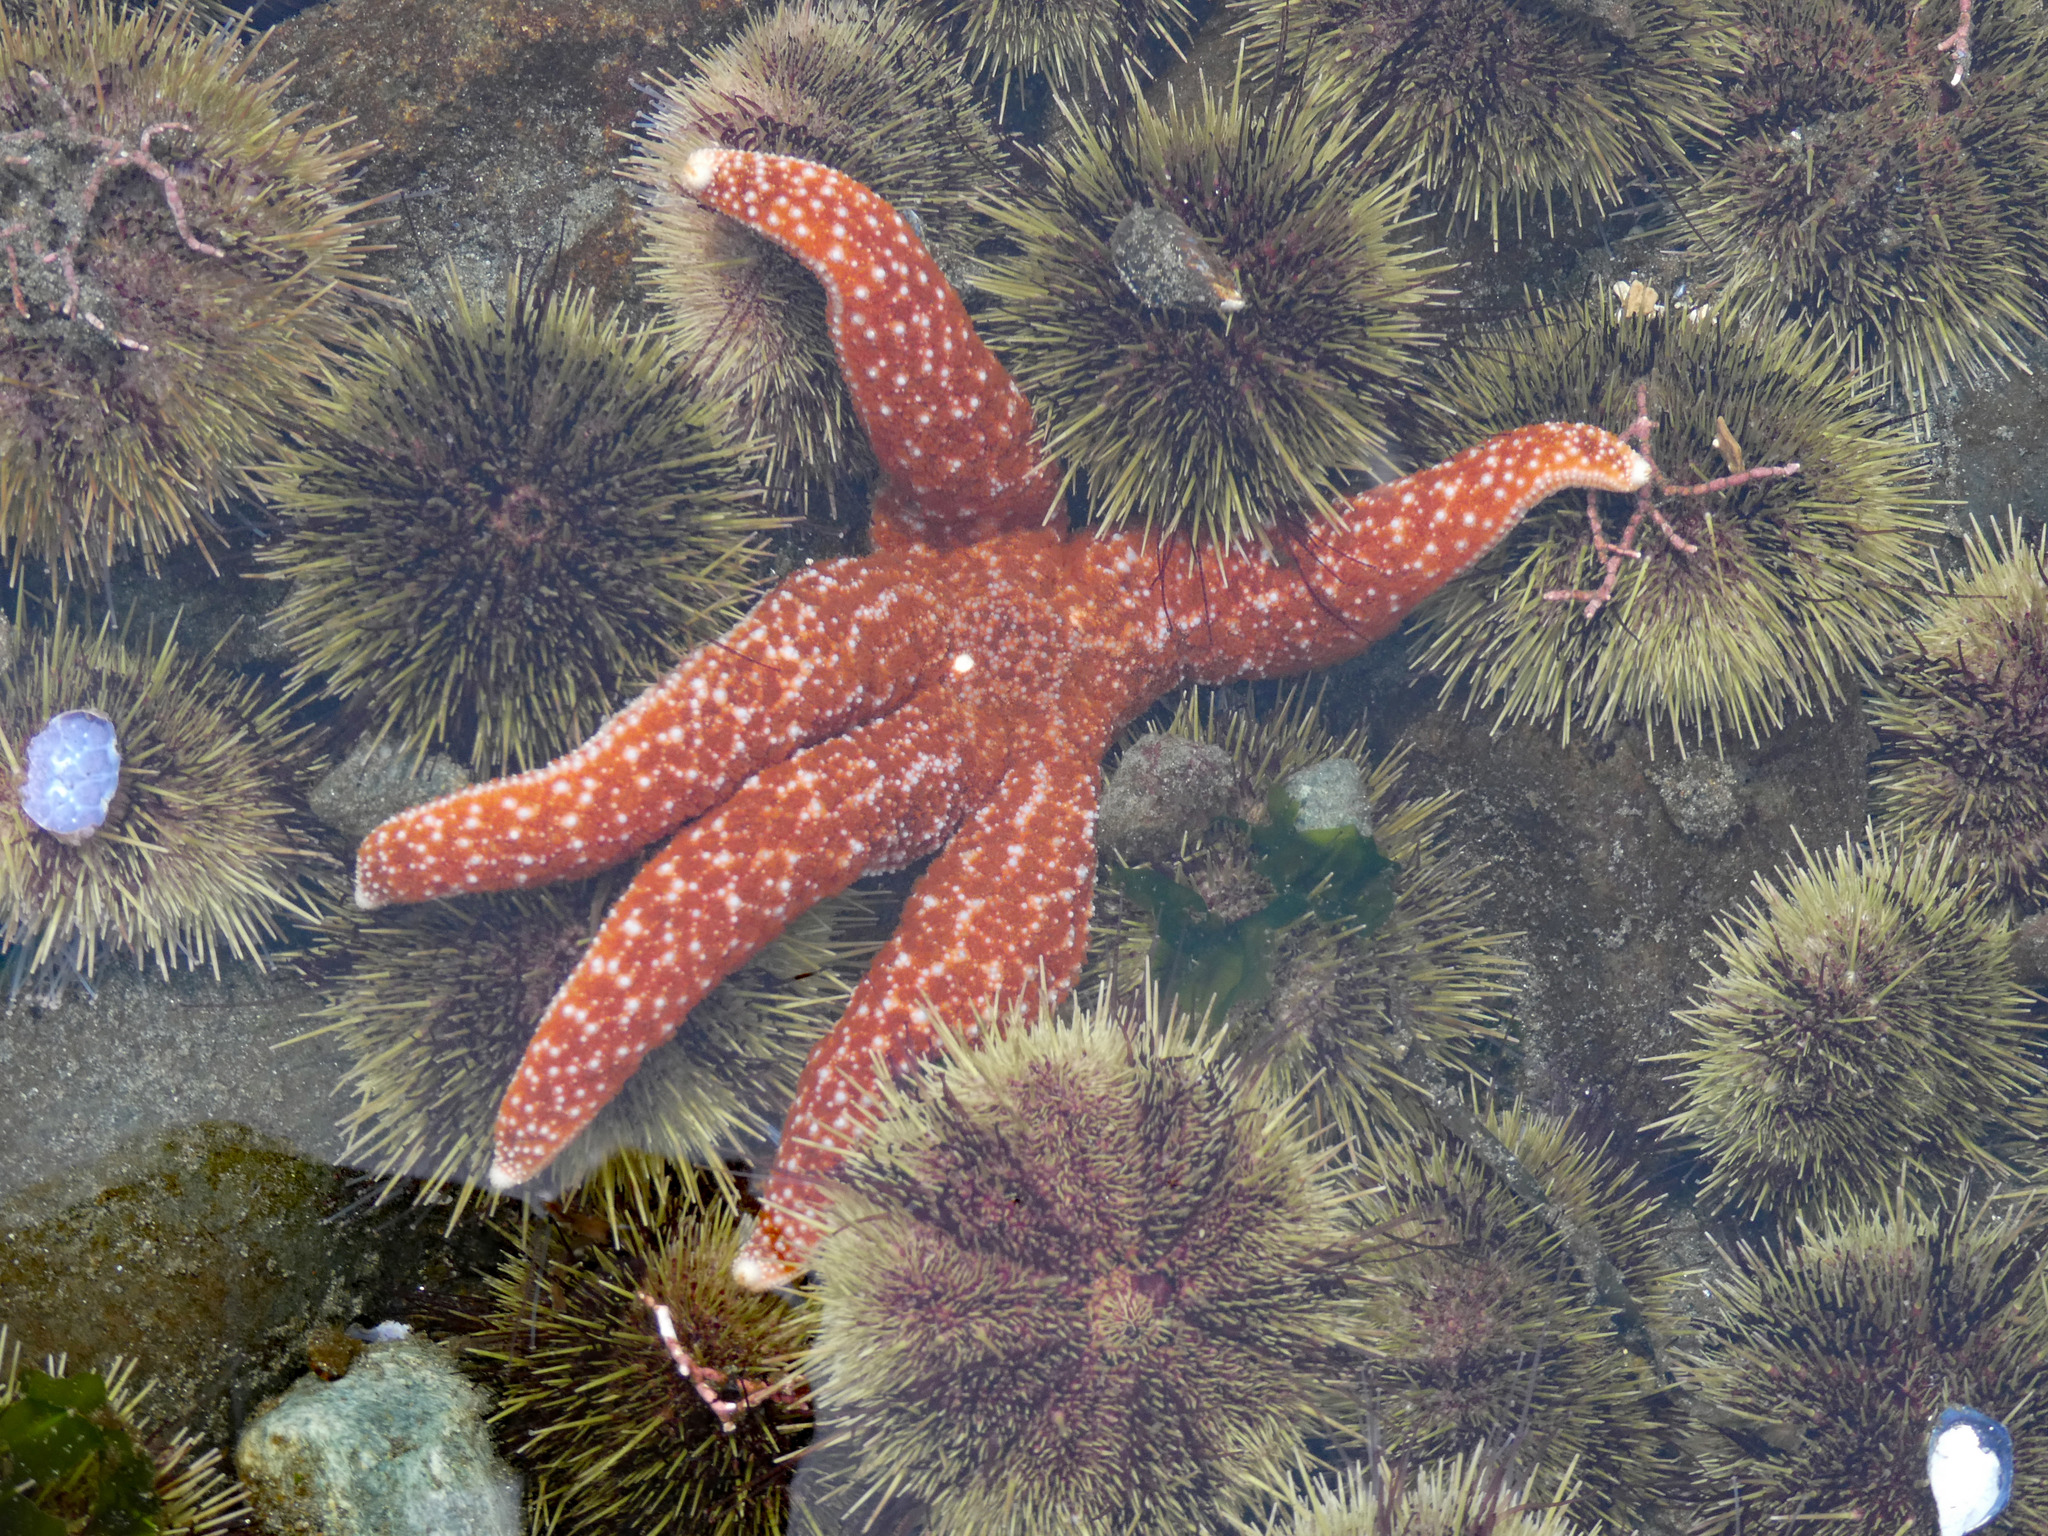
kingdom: Animalia
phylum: Echinodermata
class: Asteroidea
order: Forcipulatida
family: Asteriidae
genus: Evasterias
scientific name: Evasterias troschelii
